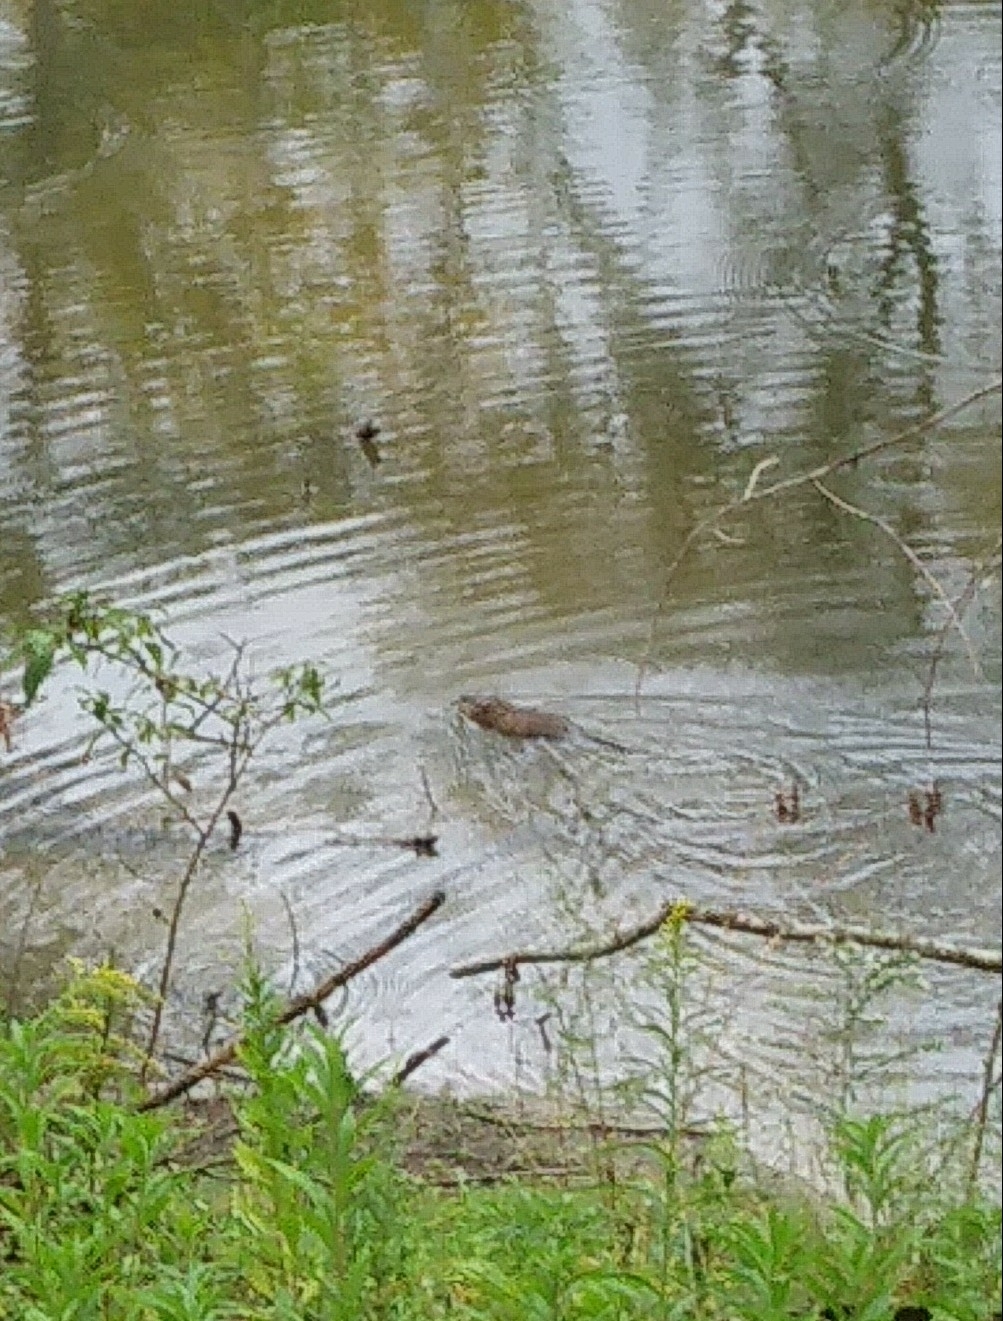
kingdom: Animalia
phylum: Chordata
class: Mammalia
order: Rodentia
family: Cricetidae
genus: Ondatra
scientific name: Ondatra zibethicus
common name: Muskrat
